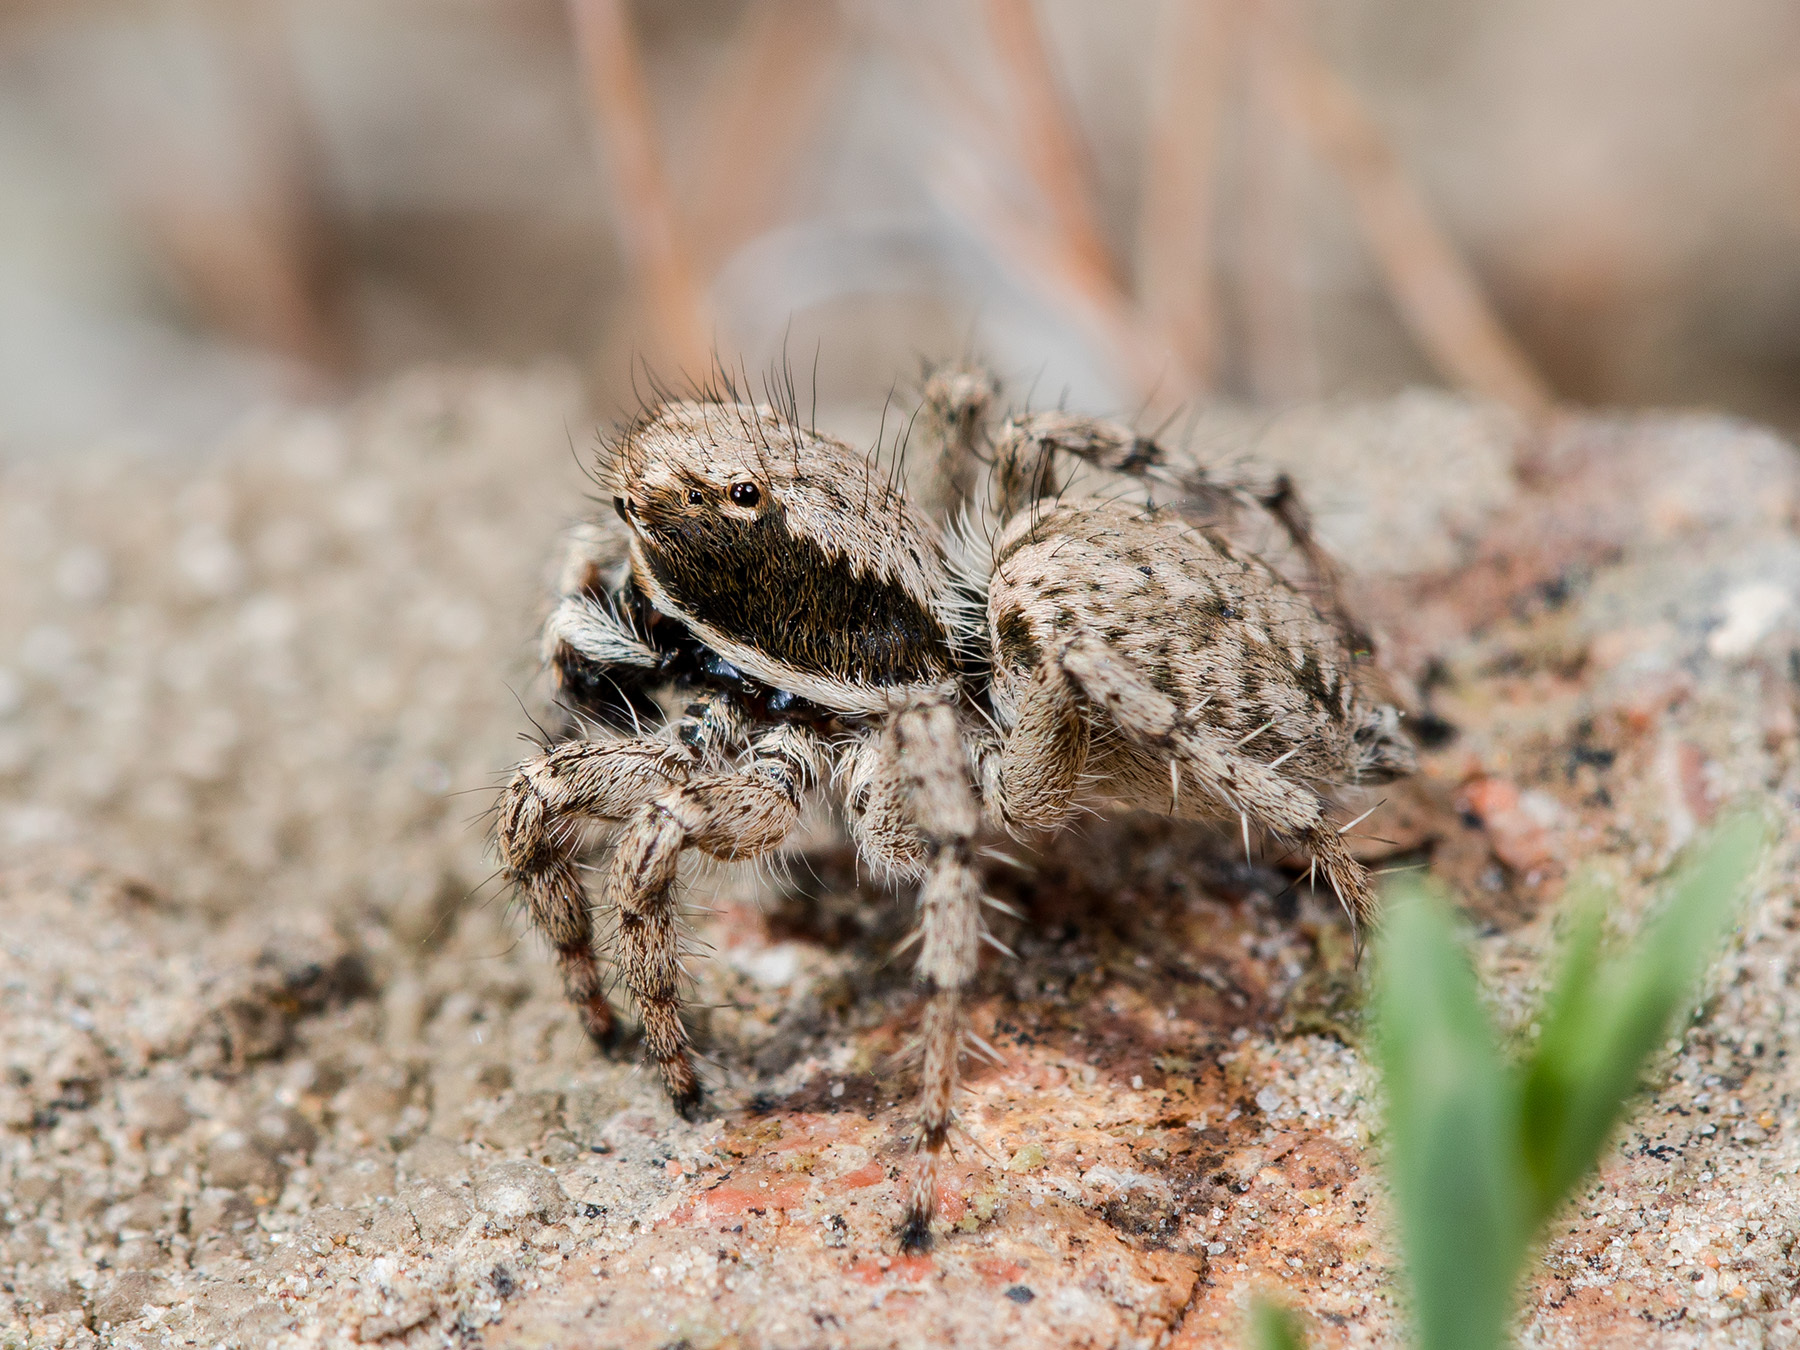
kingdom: Animalia
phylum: Arthropoda
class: Arachnida
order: Araneae
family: Salticidae
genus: Rafalus
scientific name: Rafalus variegatus
